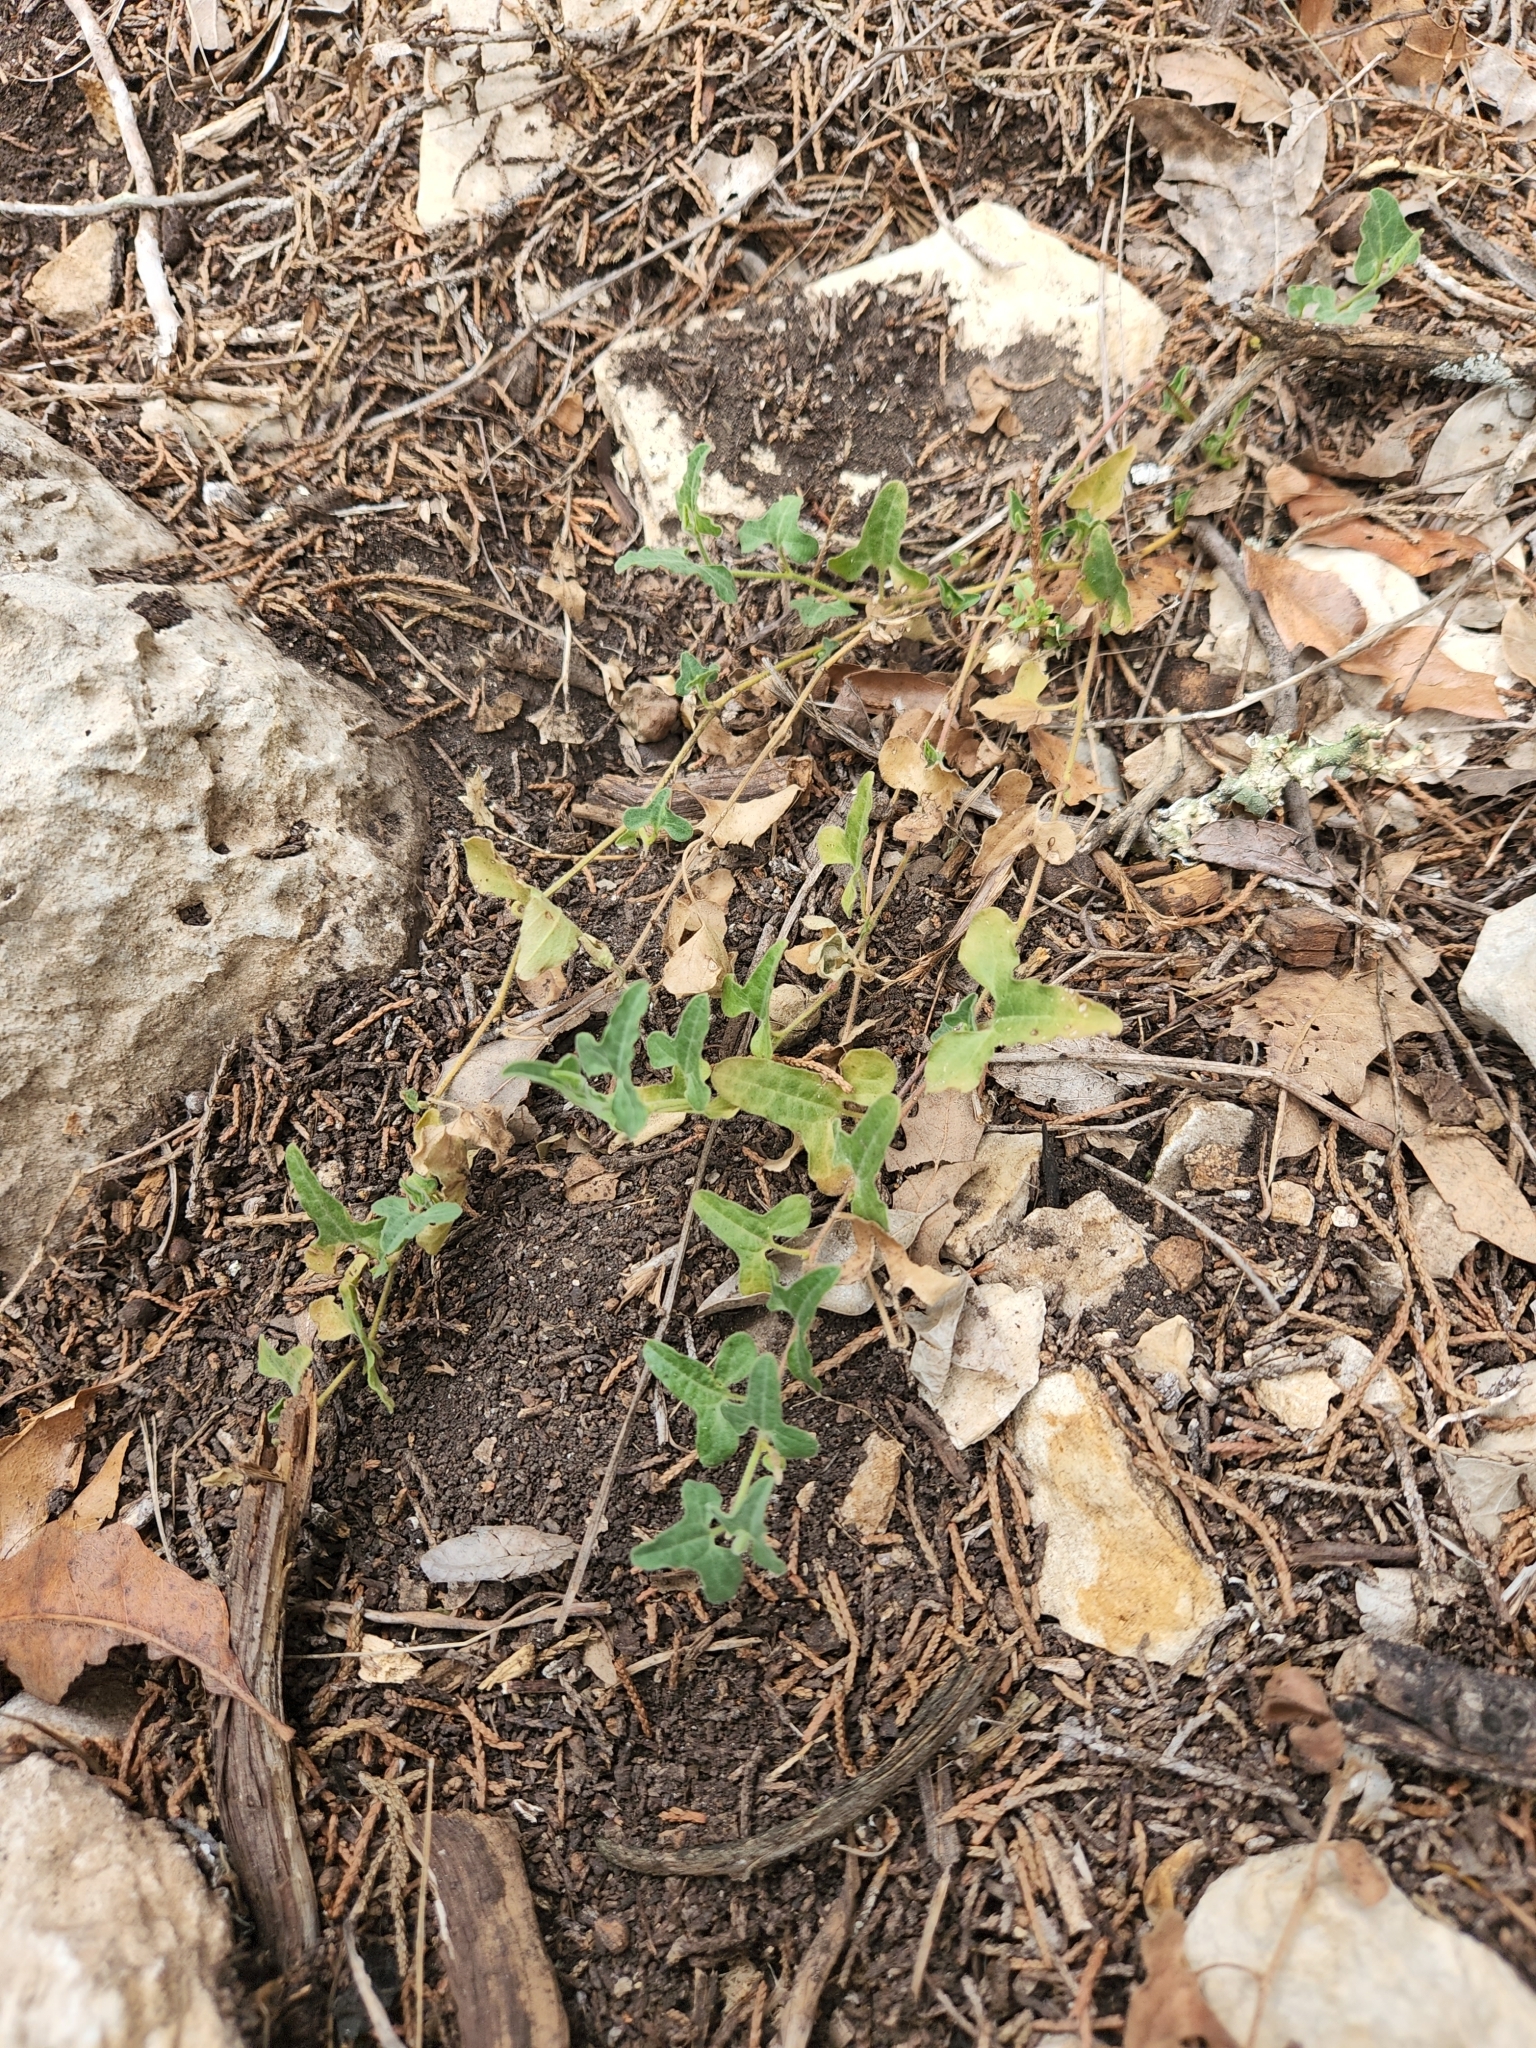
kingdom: Plantae
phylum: Tracheophyta
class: Magnoliopsida
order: Piperales
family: Aristolochiaceae
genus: Aristolochia
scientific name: Aristolochia coryi
